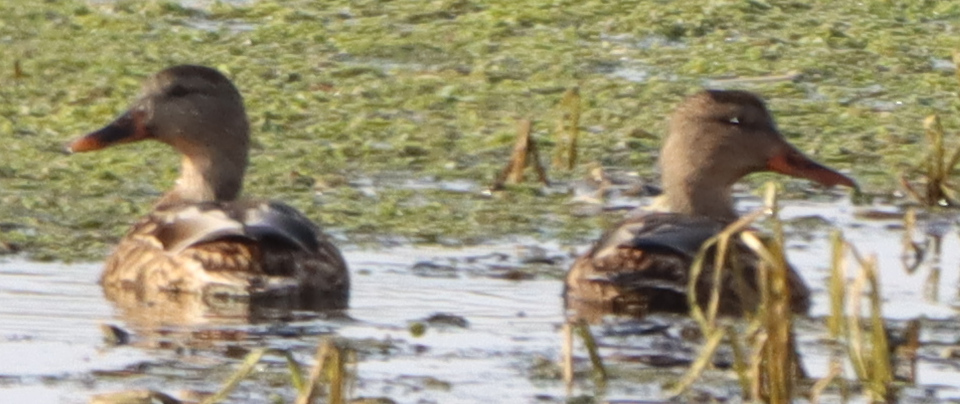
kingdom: Animalia
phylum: Chordata
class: Aves
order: Anseriformes
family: Anatidae
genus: Anas
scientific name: Anas platyrhynchos
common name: Mallard
